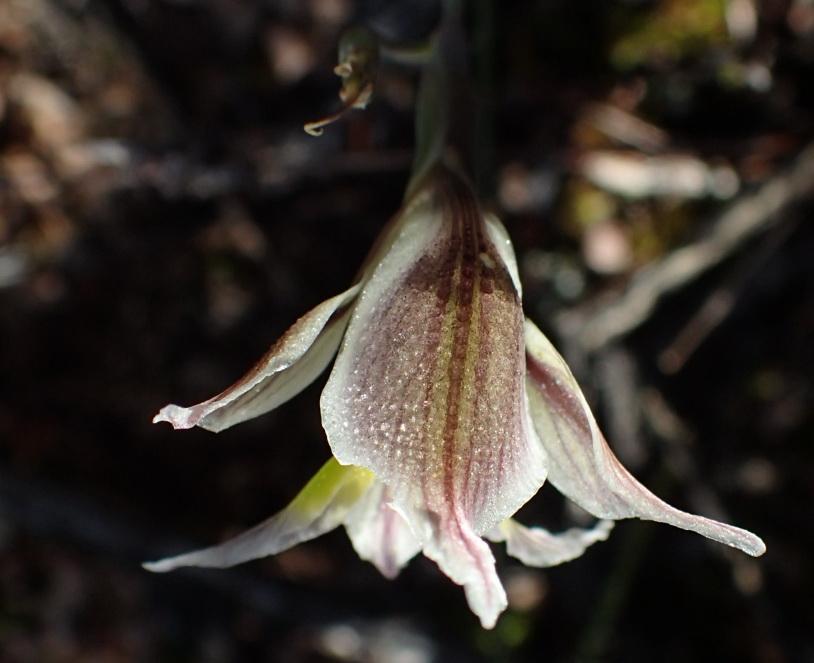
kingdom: Plantae
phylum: Tracheophyta
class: Liliopsida
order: Asparagales
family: Iridaceae
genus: Gladiolus
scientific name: Gladiolus permeabilis
